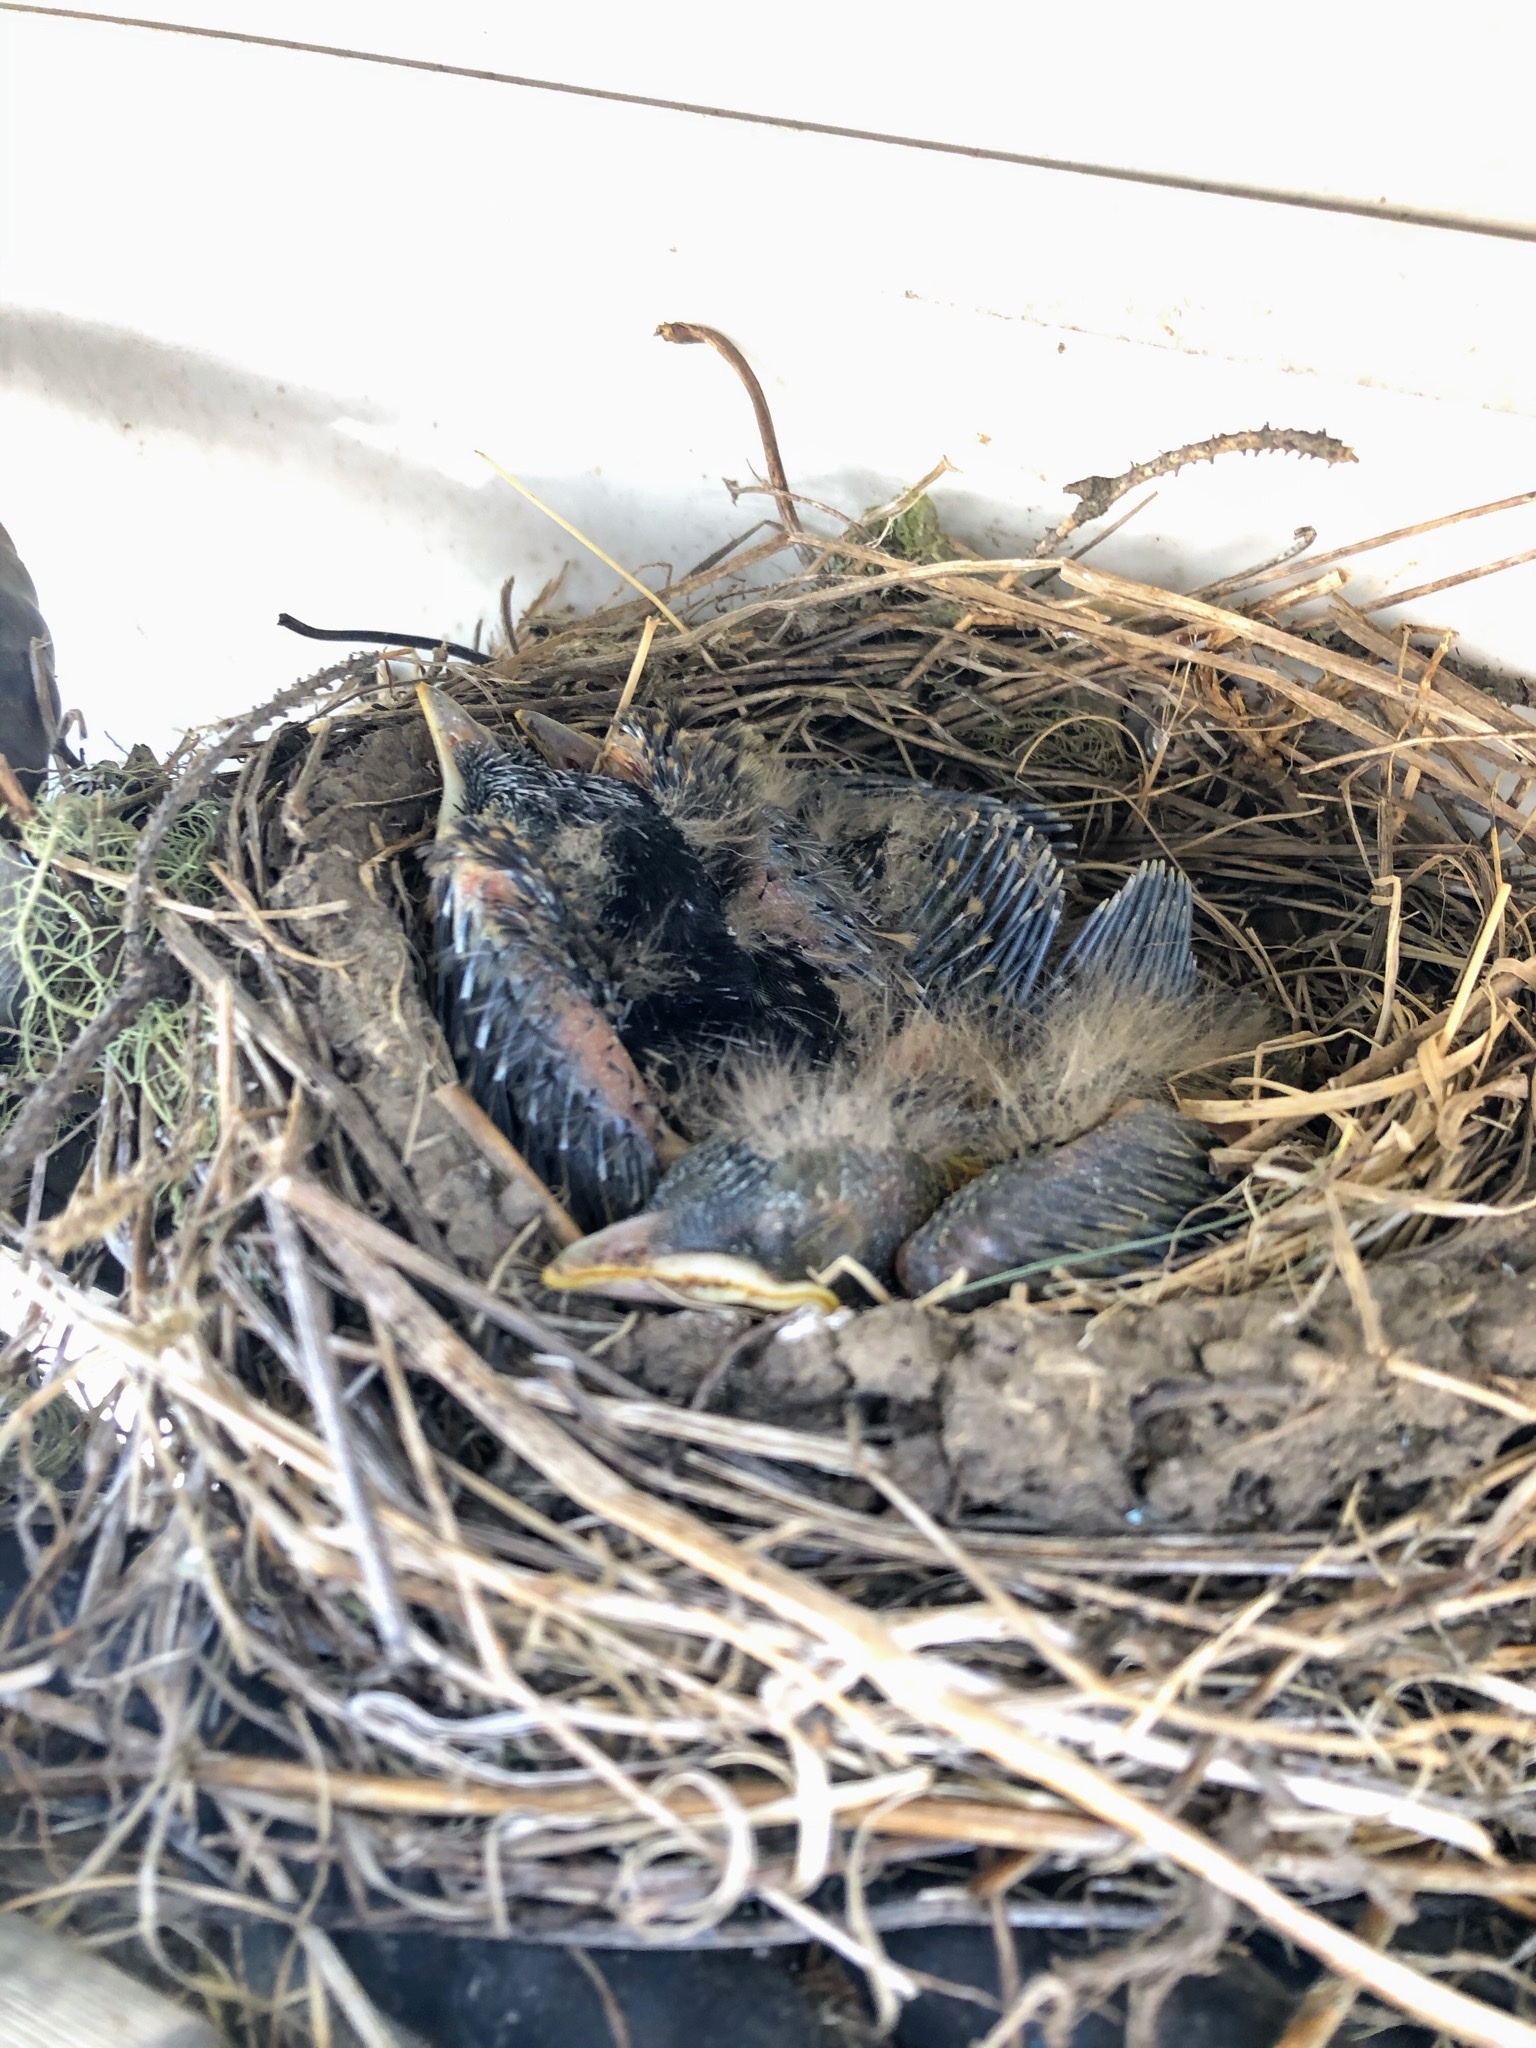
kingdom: Animalia
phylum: Chordata
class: Aves
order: Passeriformes
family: Turdidae
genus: Turdus
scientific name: Turdus migratorius
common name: American robin
